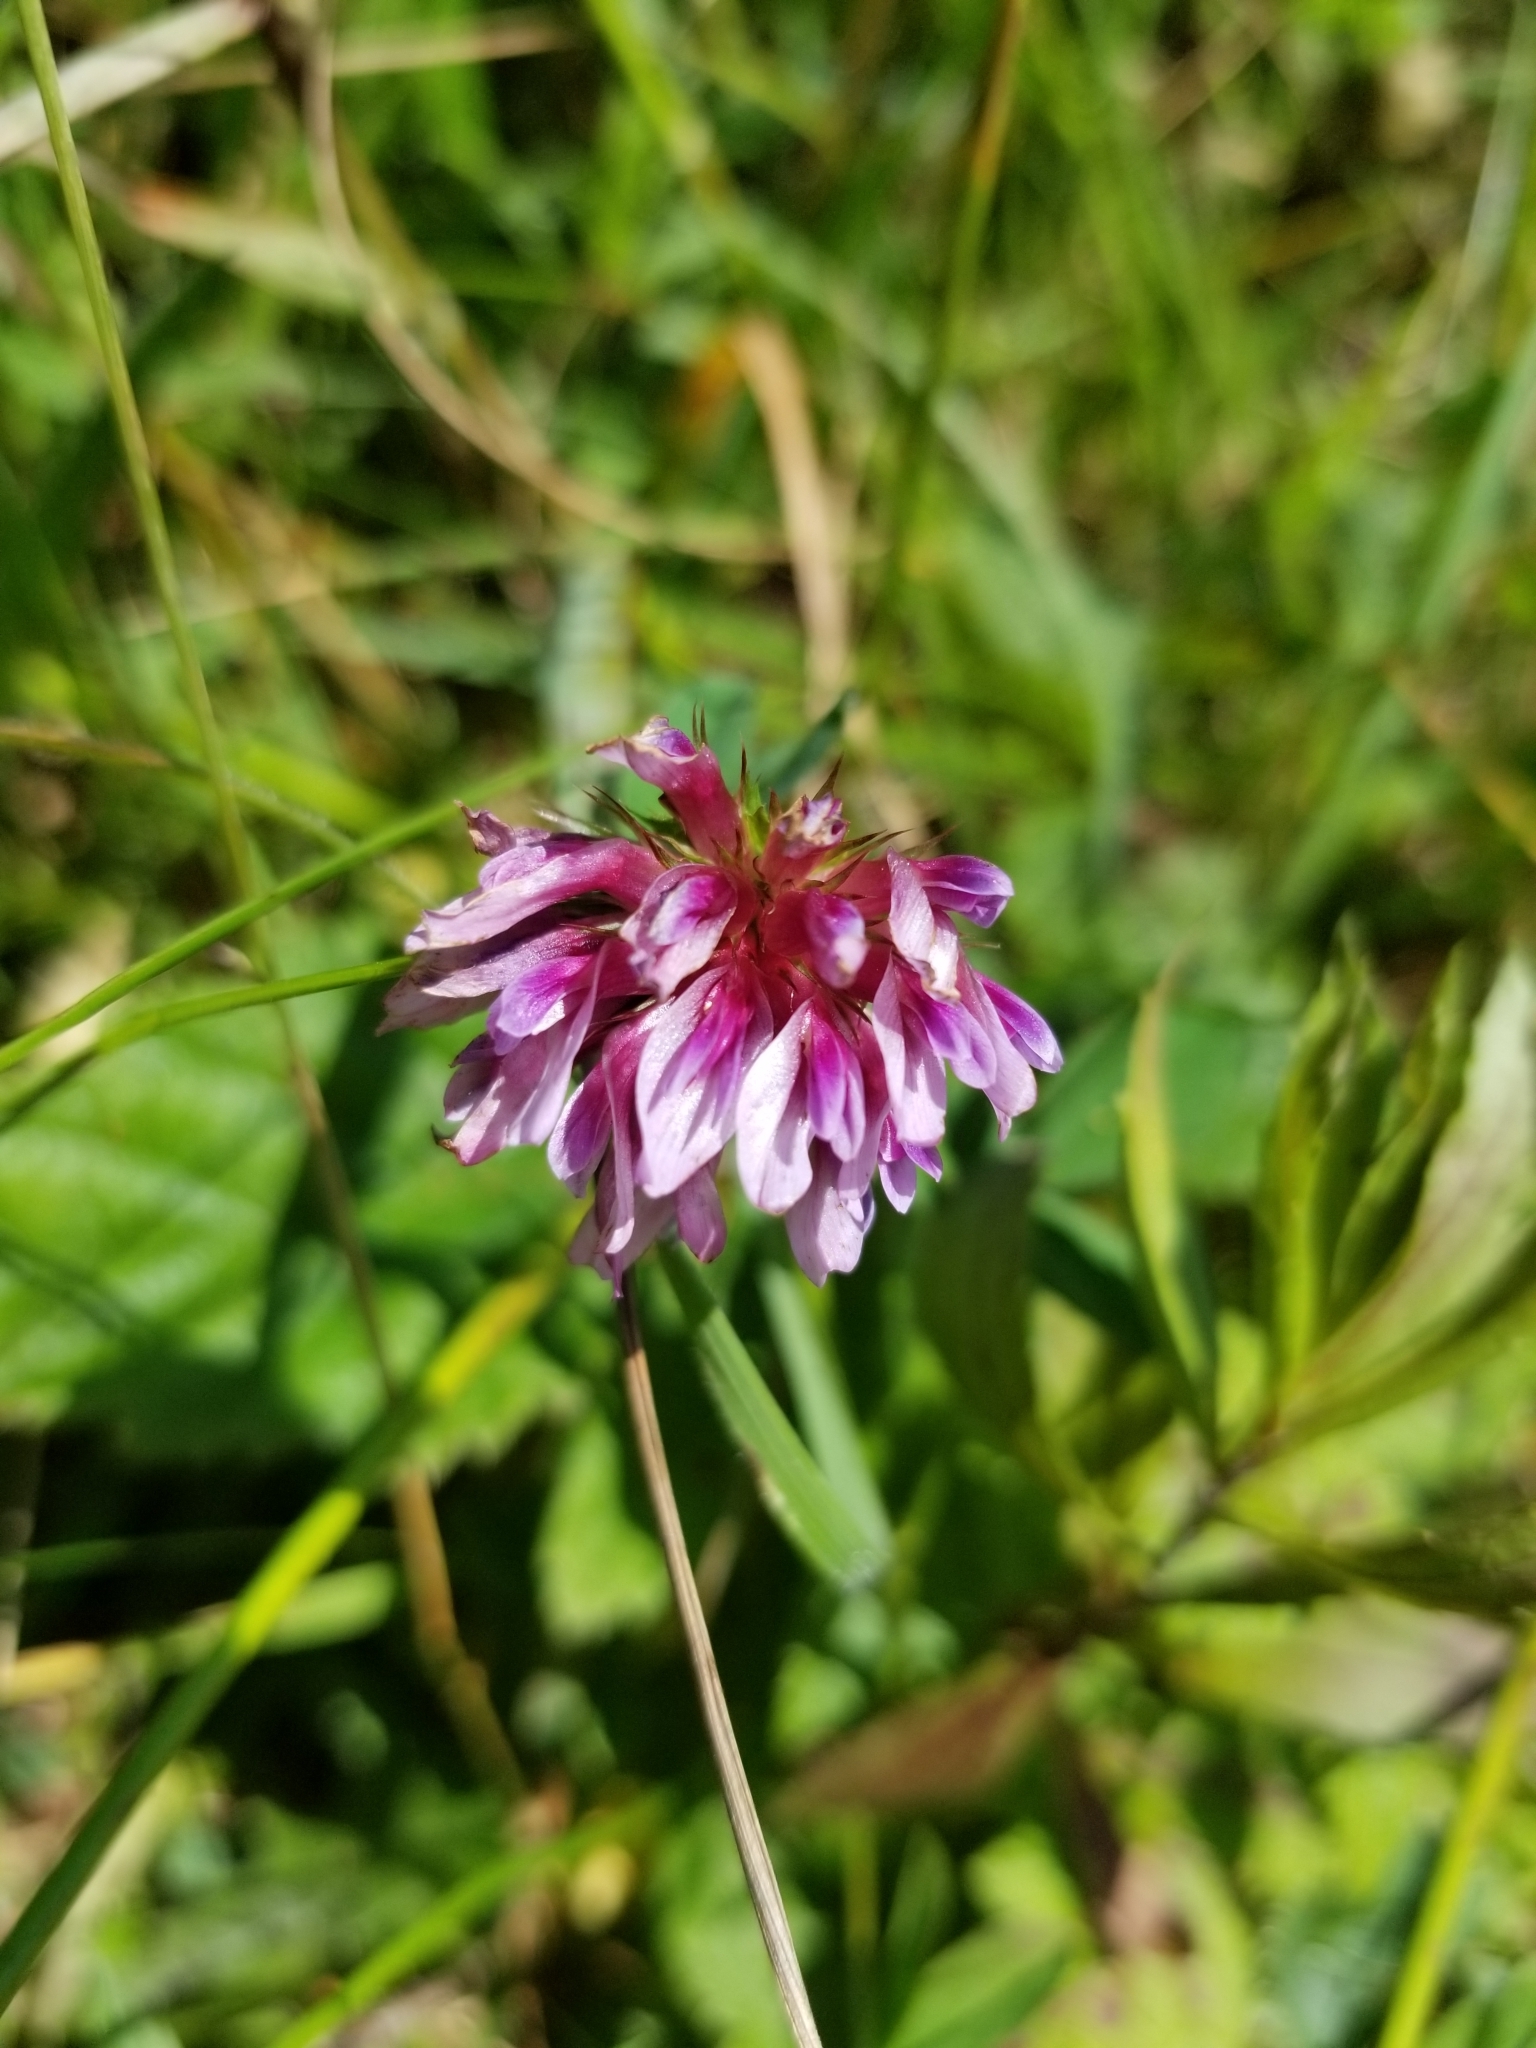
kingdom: Plantae
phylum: Tracheophyta
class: Magnoliopsida
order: Fabales
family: Fabaceae
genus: Trifolium
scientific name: Trifolium wormskioldii
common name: Springbank clover
